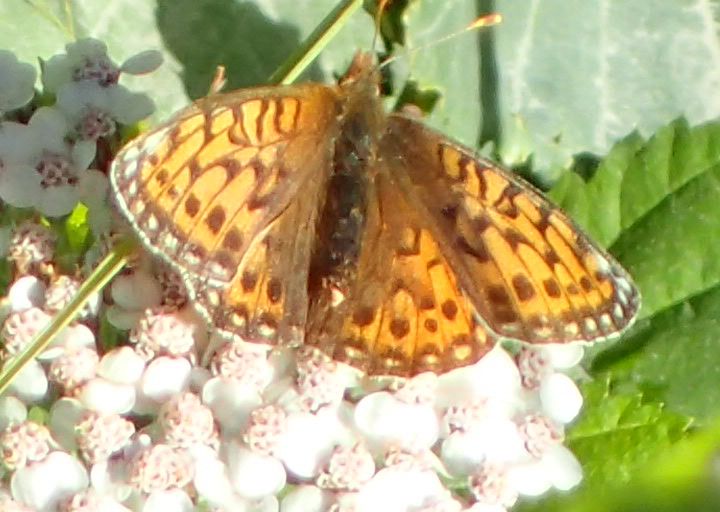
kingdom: Animalia
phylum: Arthropoda
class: Insecta
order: Lepidoptera
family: Nymphalidae
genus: Speyeria
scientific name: Speyeria mormonia
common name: Mormon fritillary
